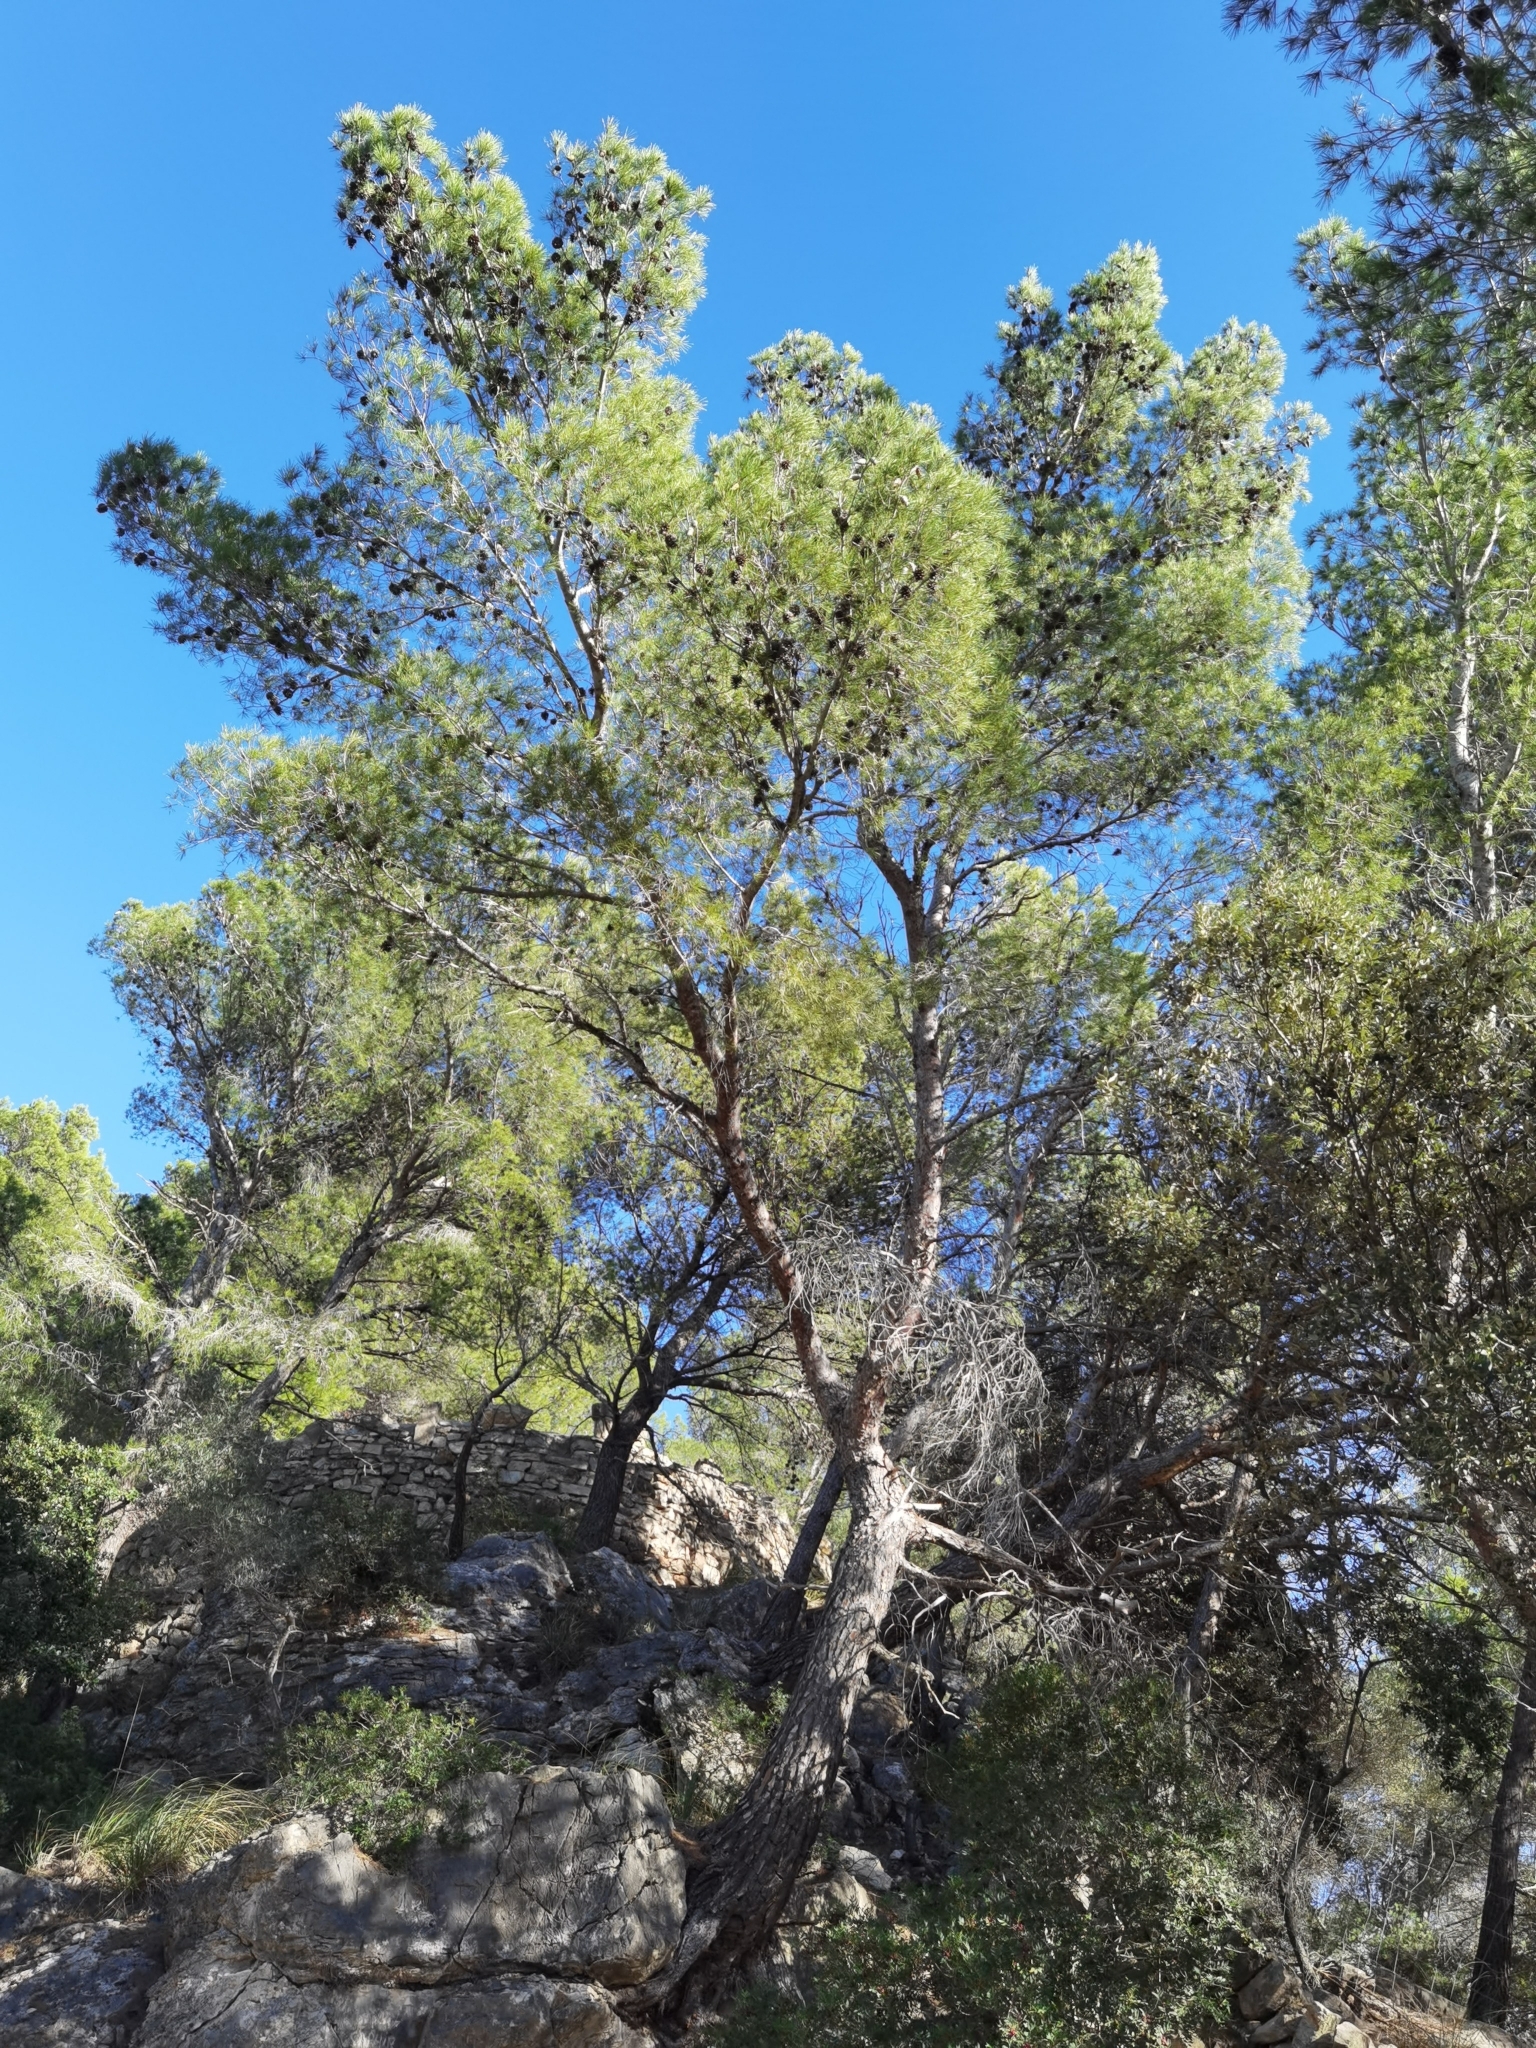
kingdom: Plantae
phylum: Tracheophyta
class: Pinopsida
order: Pinales
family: Pinaceae
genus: Pinus
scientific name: Pinus halepensis
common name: Aleppo pine
